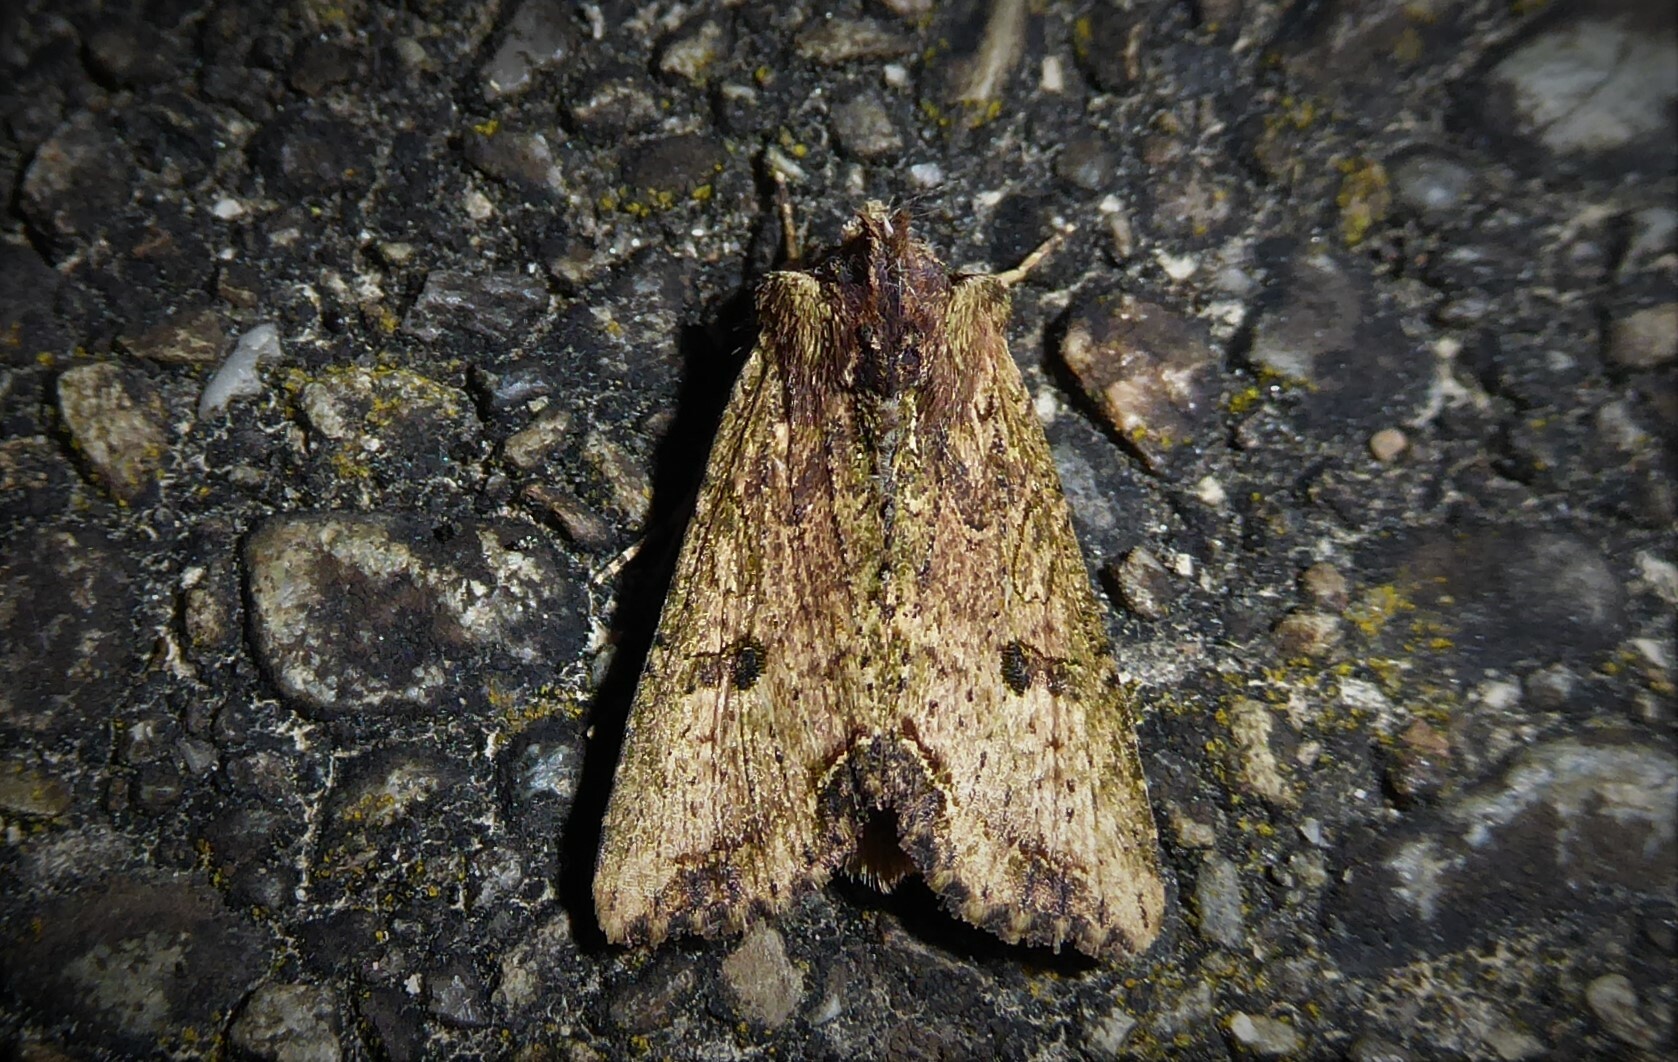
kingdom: Animalia
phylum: Arthropoda
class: Insecta
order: Lepidoptera
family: Noctuidae
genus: Meterana
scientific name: Meterana coeleno
